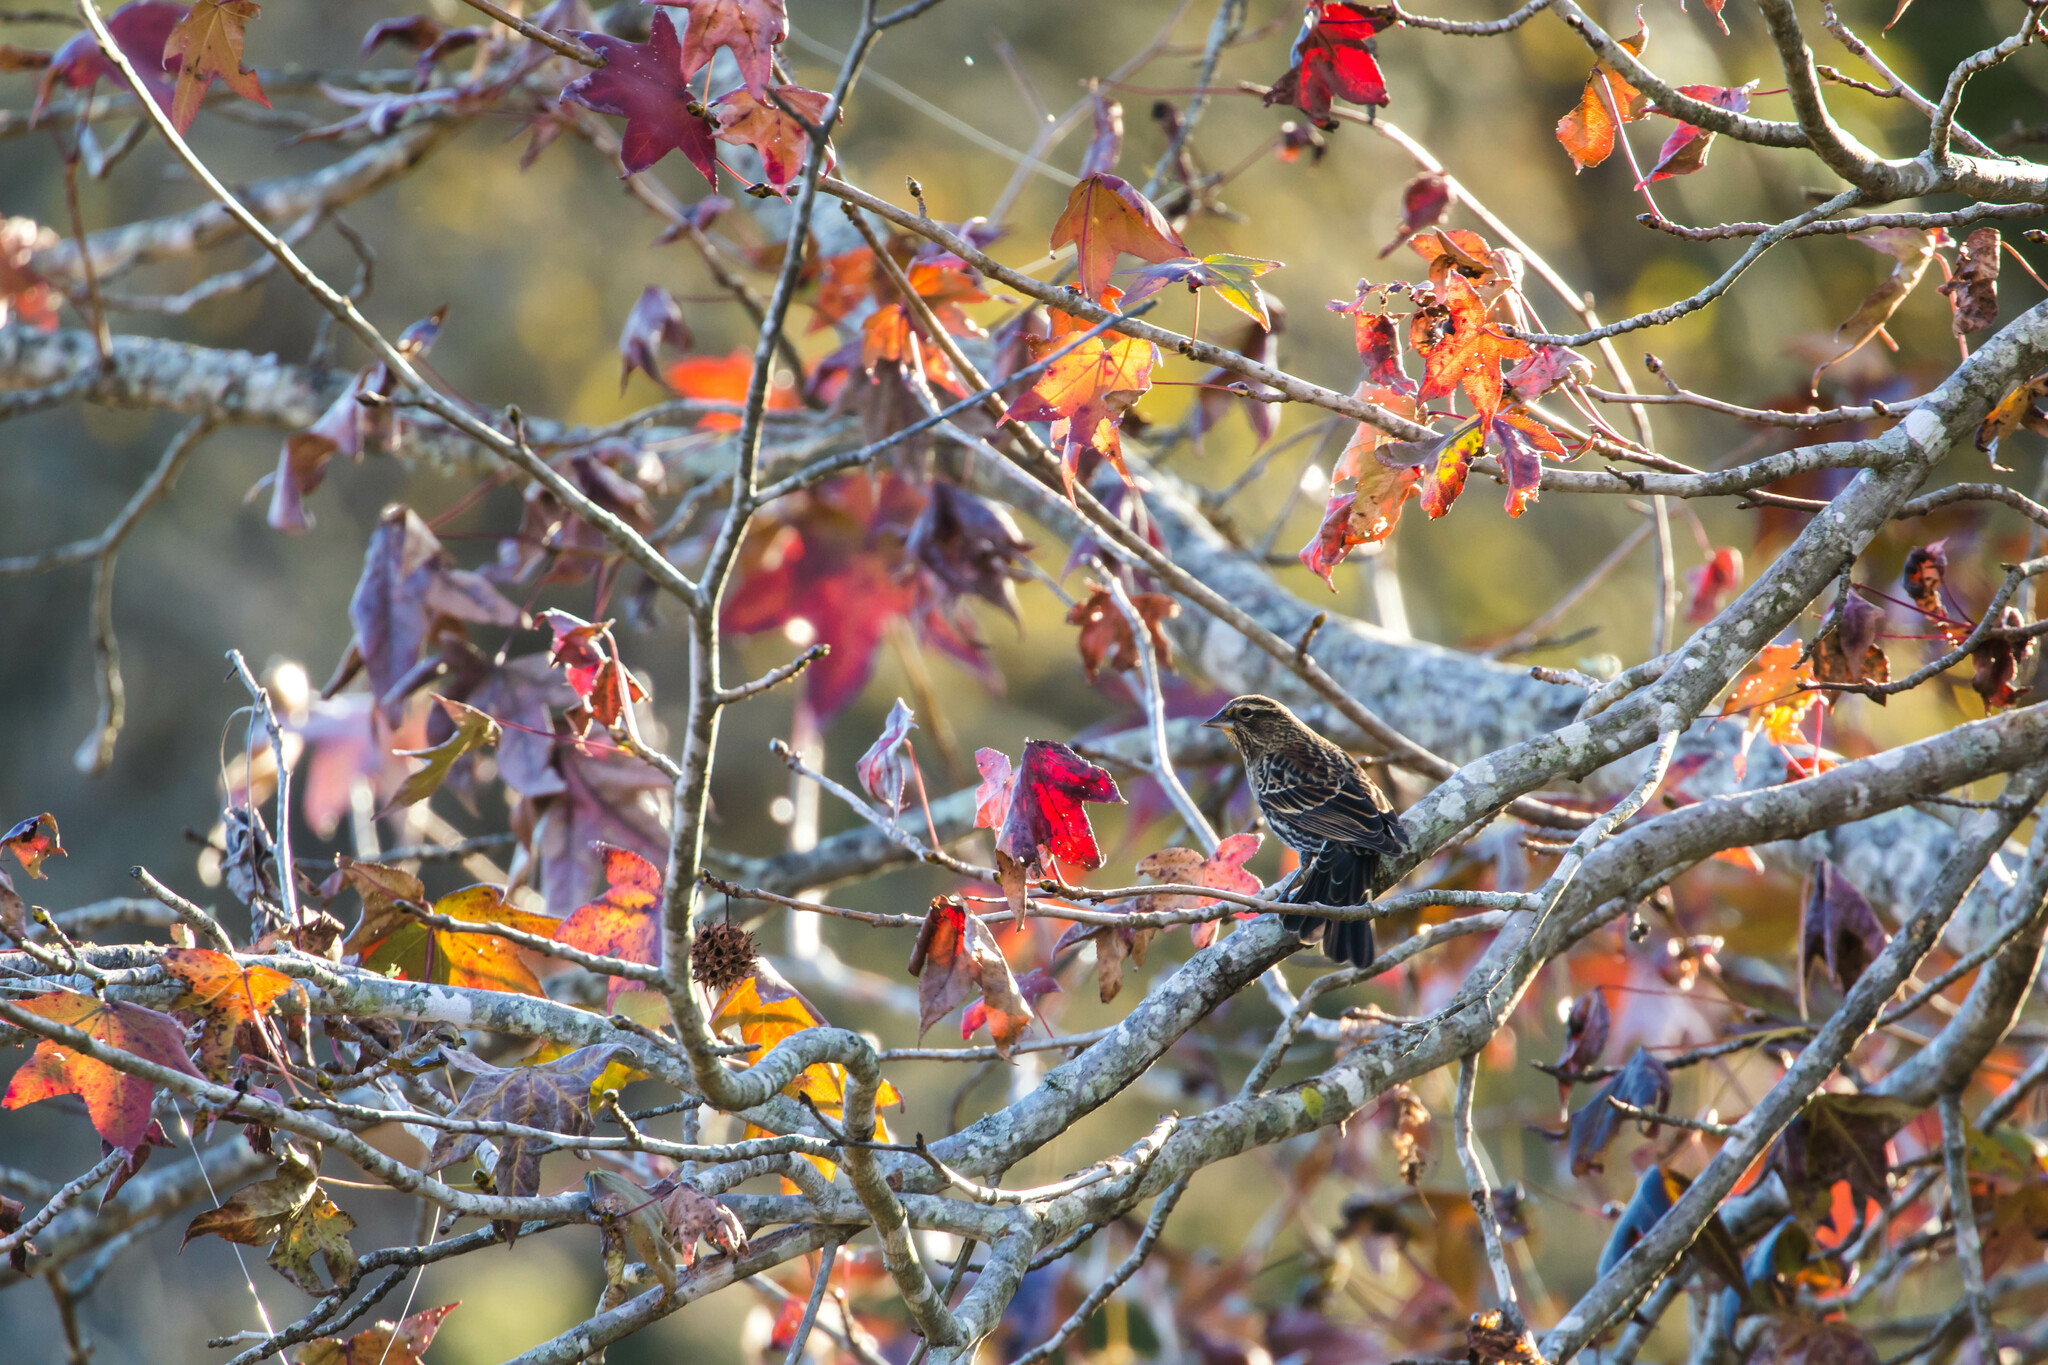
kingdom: Animalia
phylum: Chordata
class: Aves
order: Passeriformes
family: Icteridae
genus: Agelaius
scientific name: Agelaius phoeniceus
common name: Red-winged blackbird
